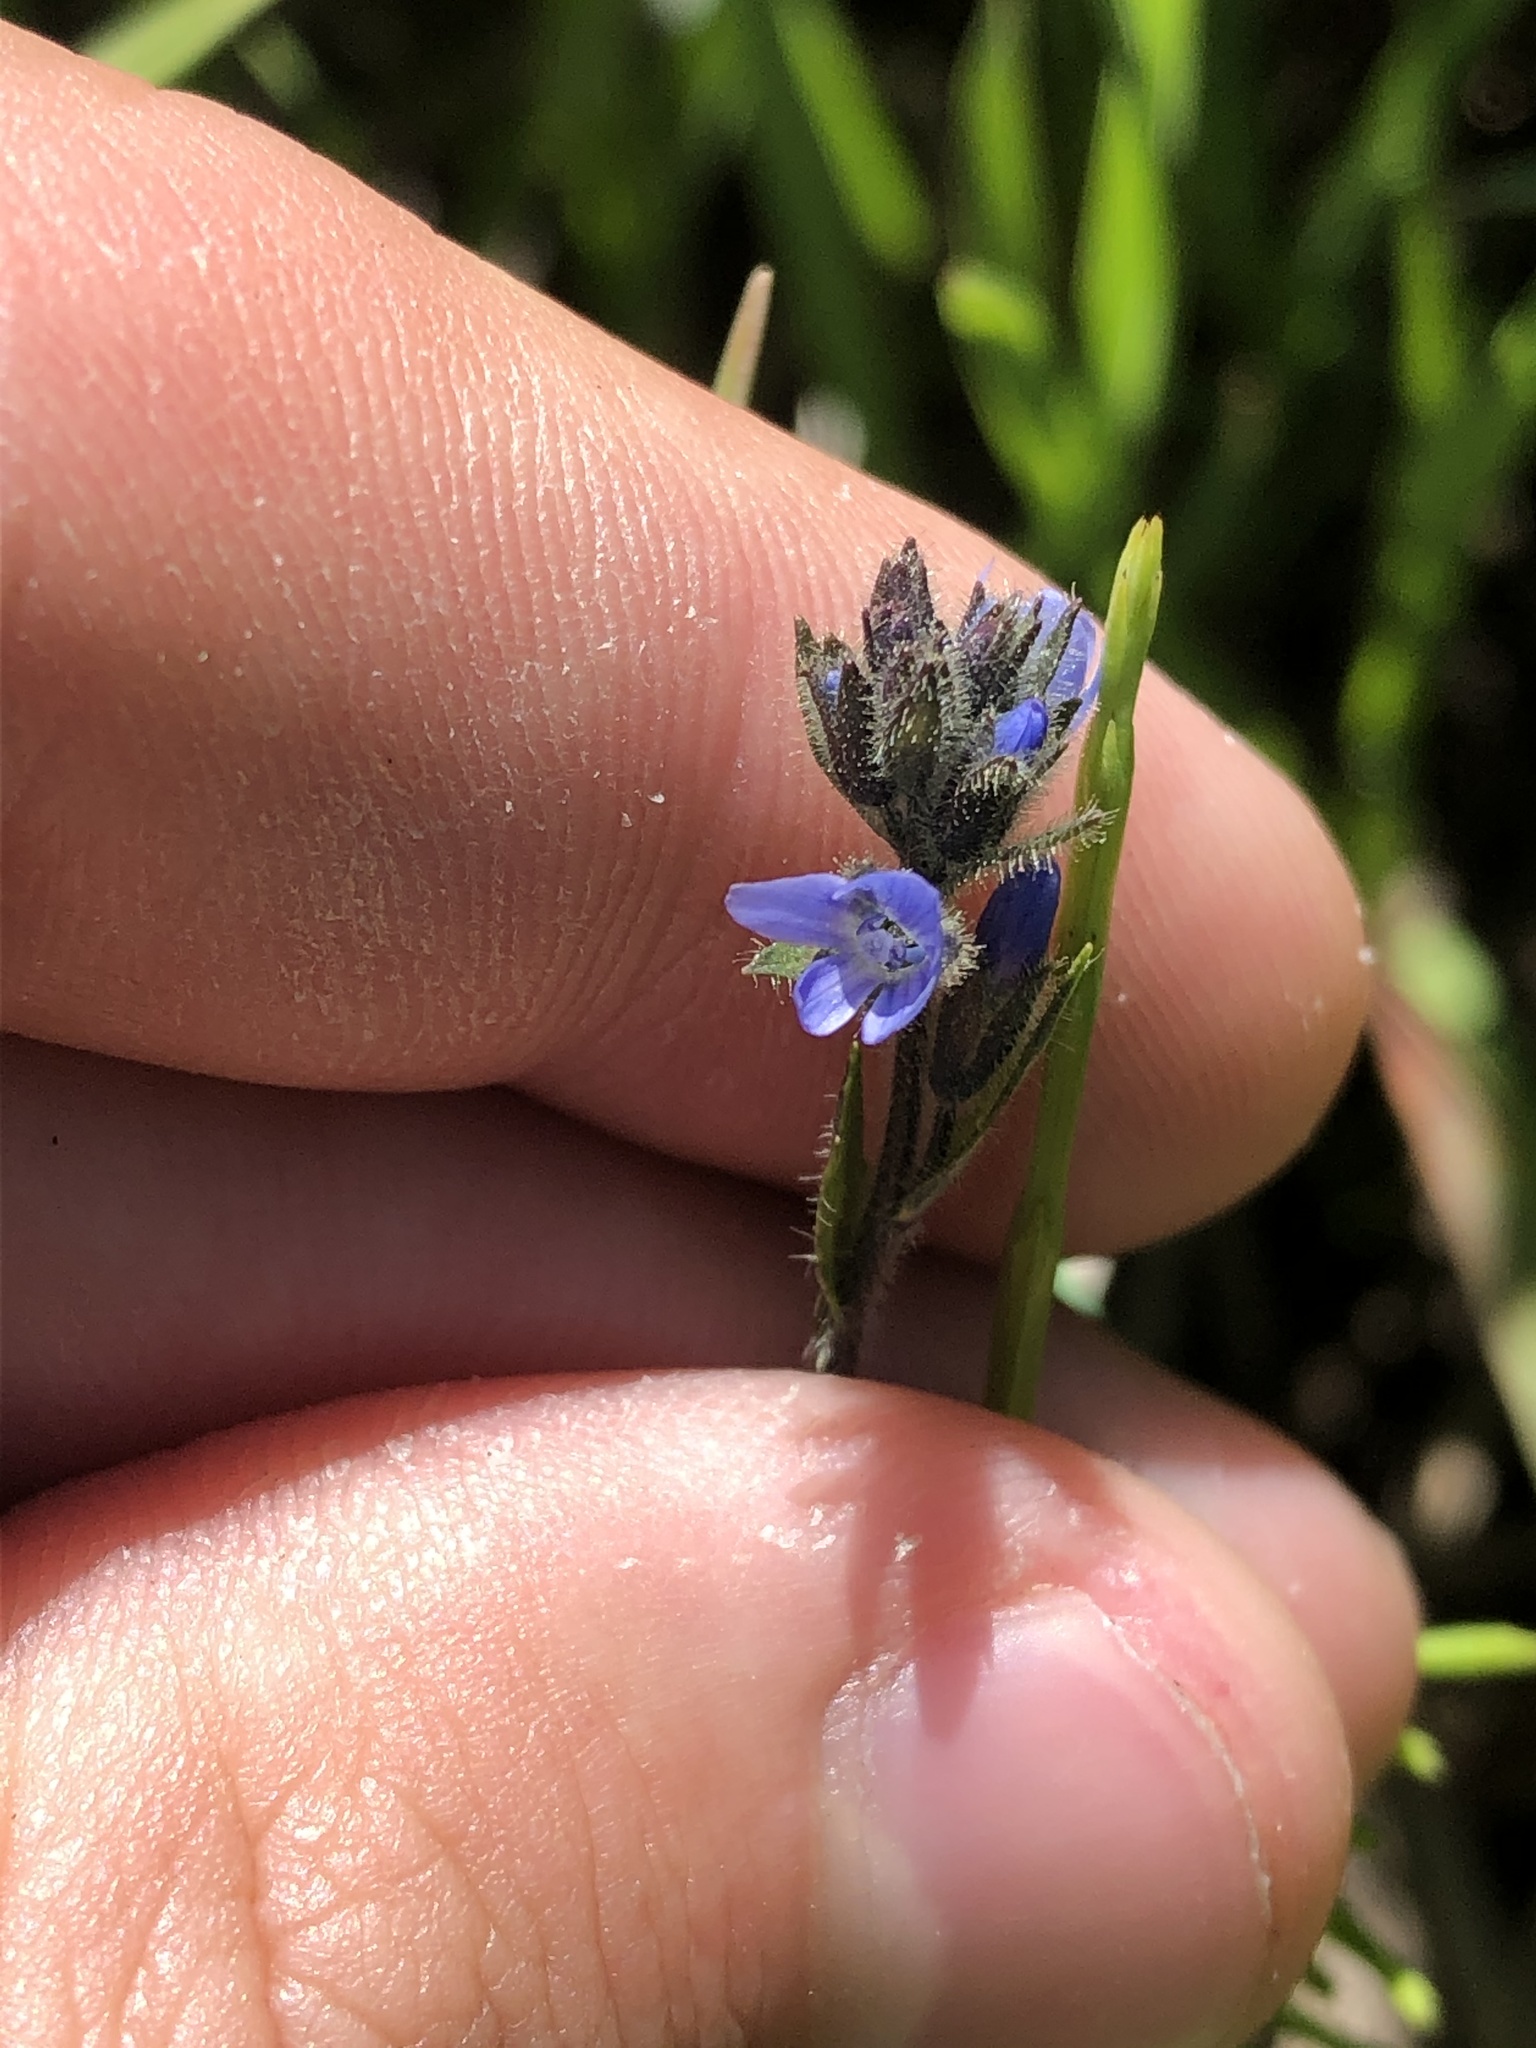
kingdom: Plantae
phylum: Tracheophyta
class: Magnoliopsida
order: Lamiales
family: Plantaginaceae
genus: Veronica
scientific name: Veronica wormskjoldii
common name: American alpine speedwell
